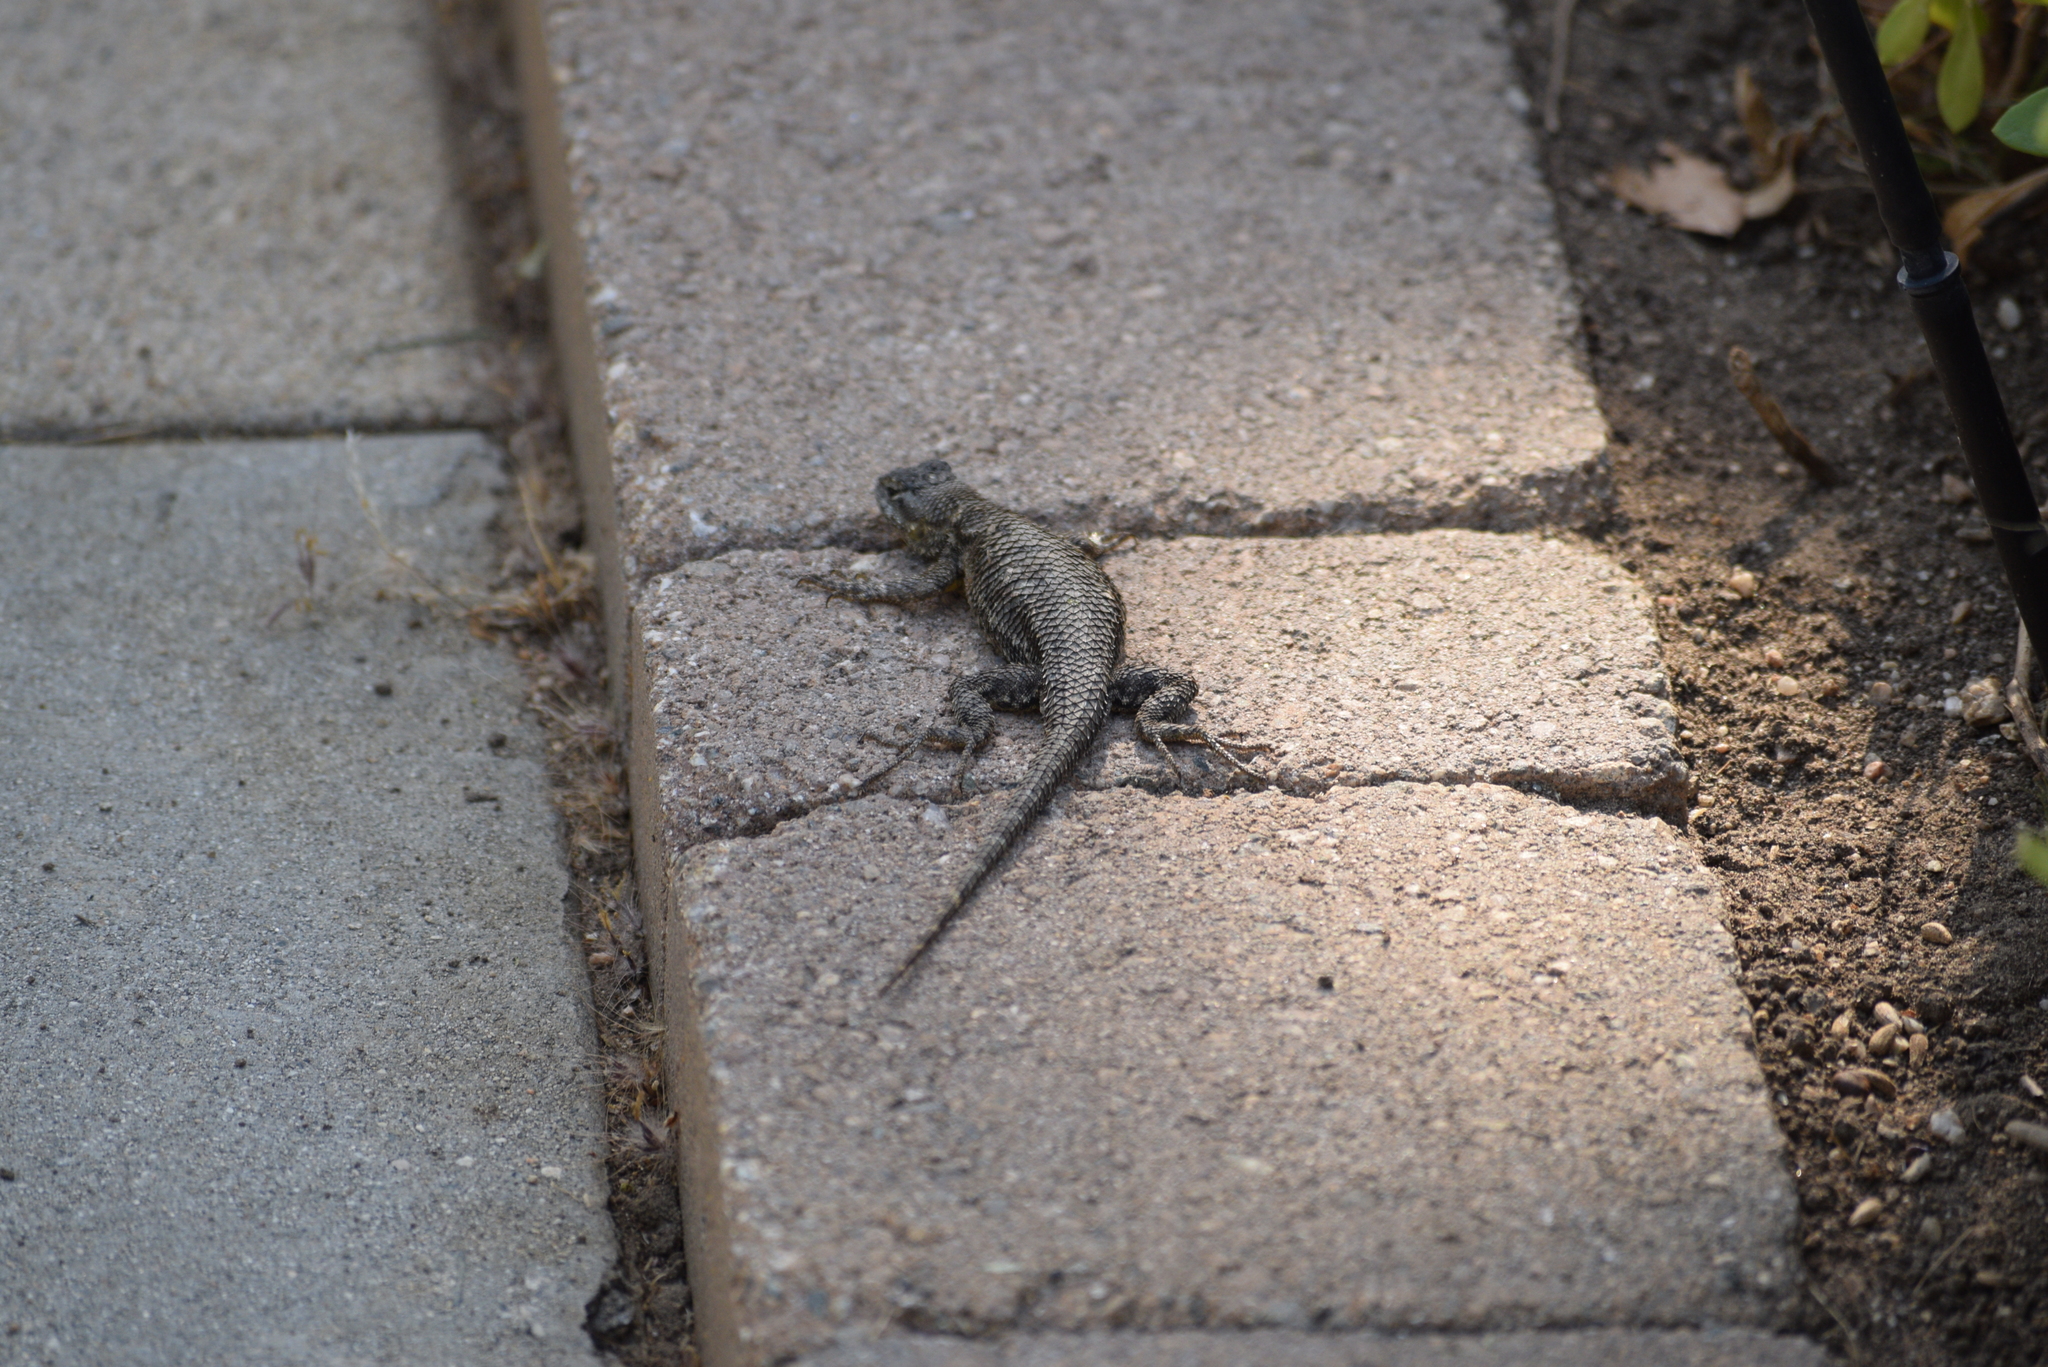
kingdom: Animalia
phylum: Chordata
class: Squamata
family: Phrynosomatidae
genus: Sceloporus
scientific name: Sceloporus occidentalis
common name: Western fence lizard
